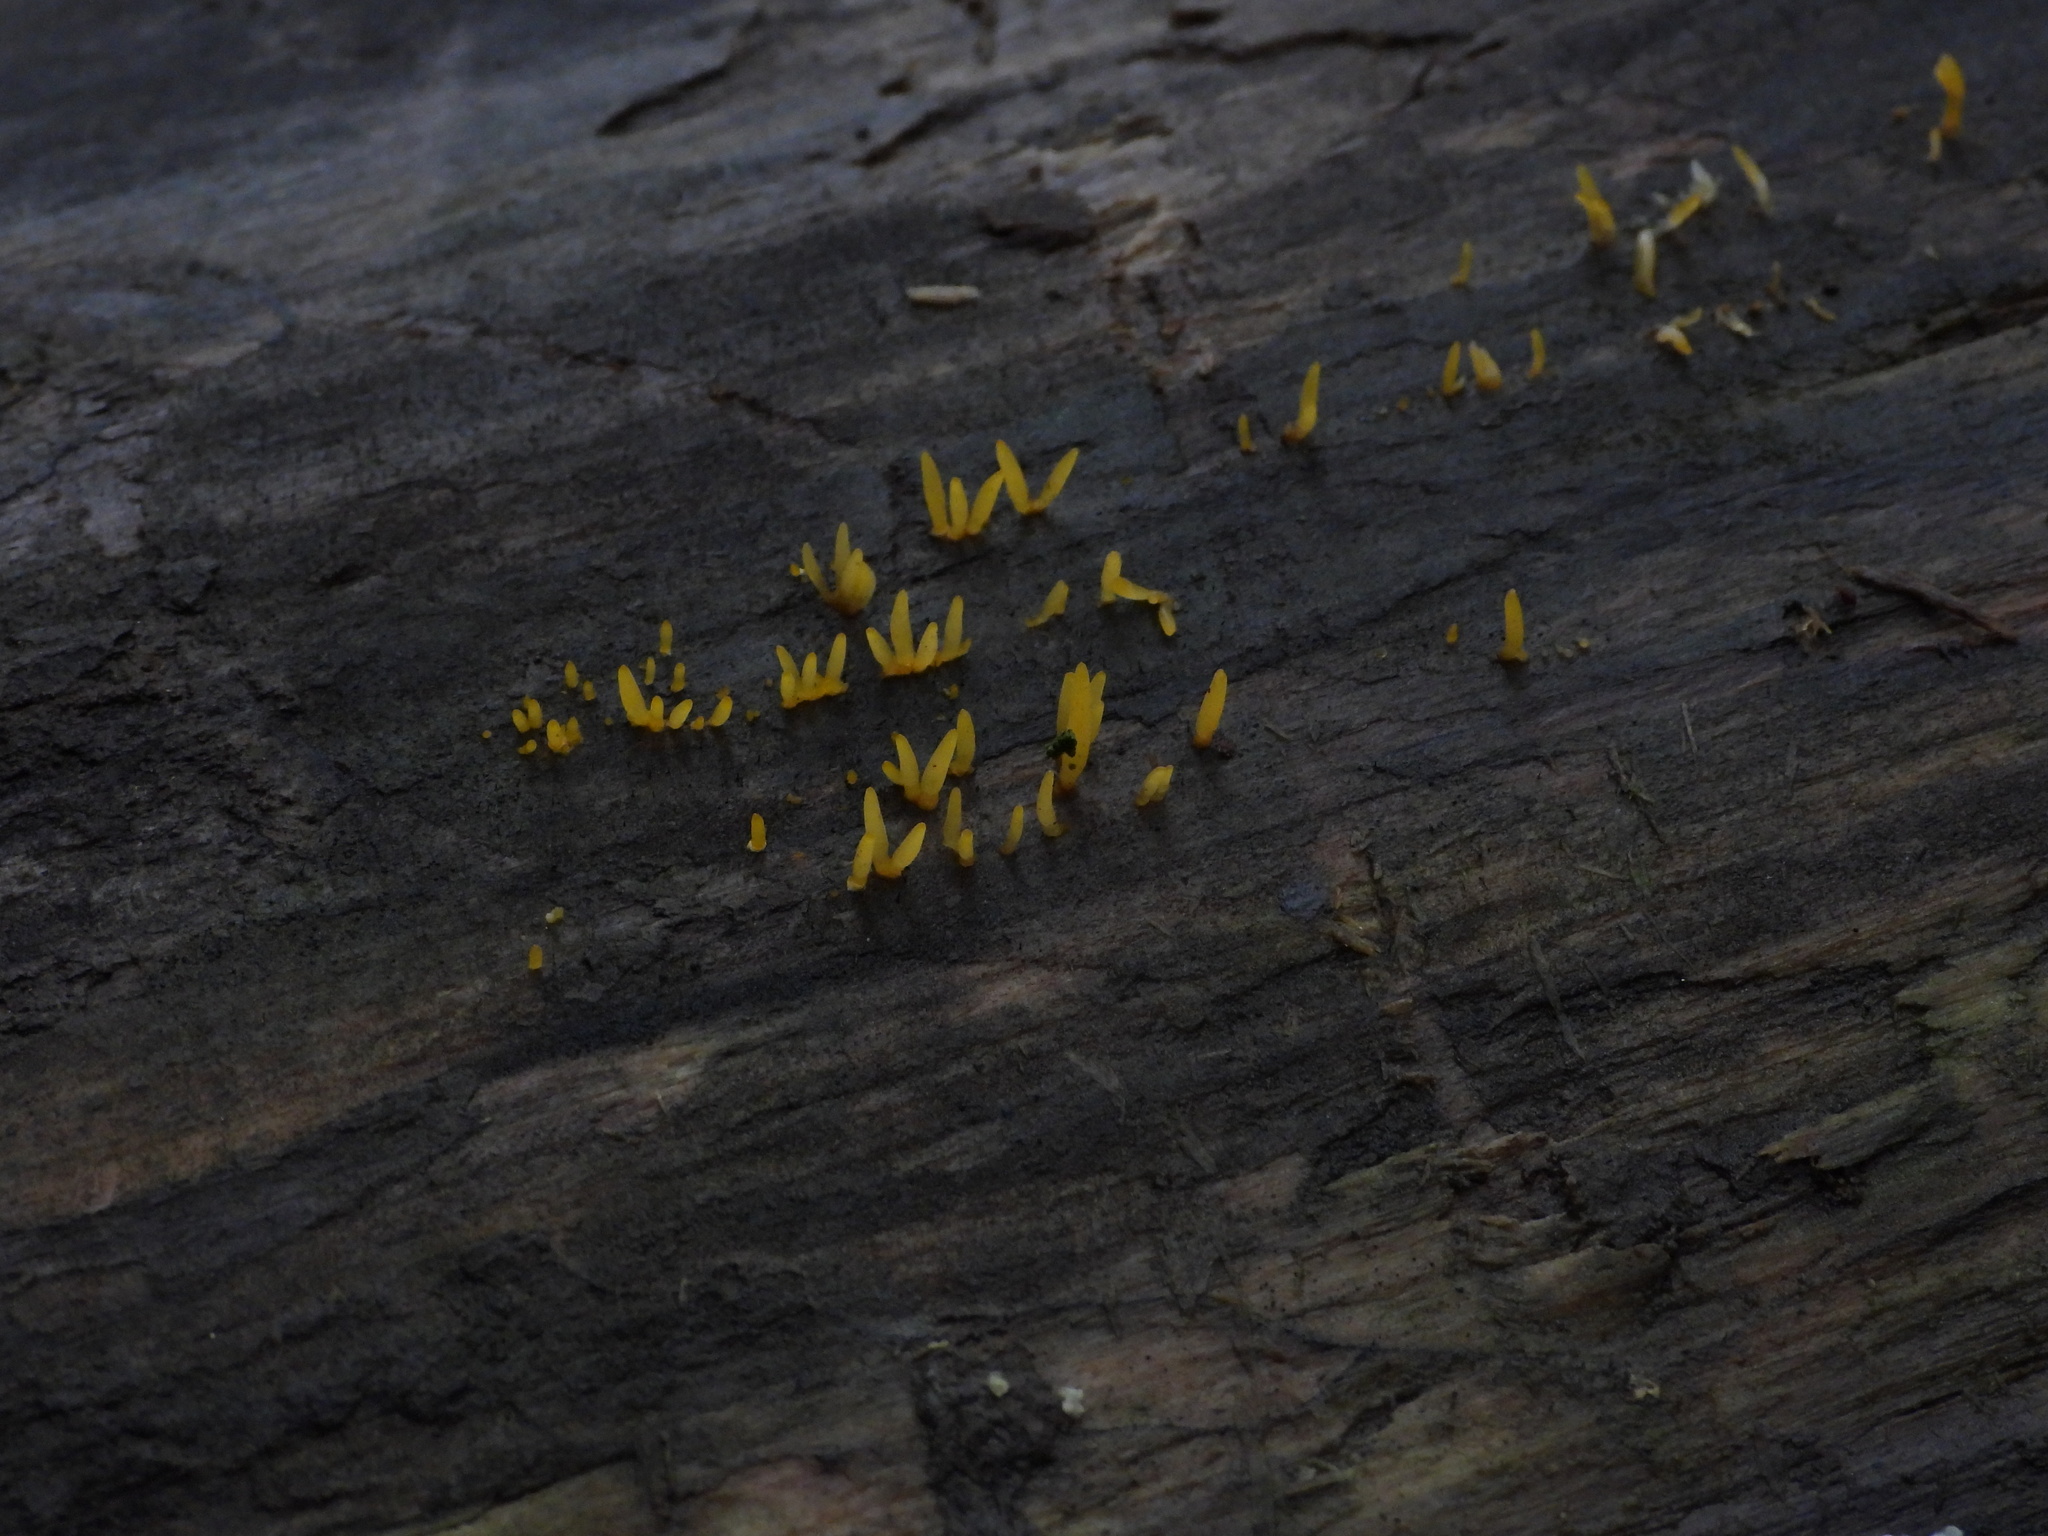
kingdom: Fungi
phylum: Basidiomycota
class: Dacrymycetes
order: Dacrymycetales
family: Dacrymycetaceae
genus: Calocera
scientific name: Calocera cornea
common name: Small stagshorn
